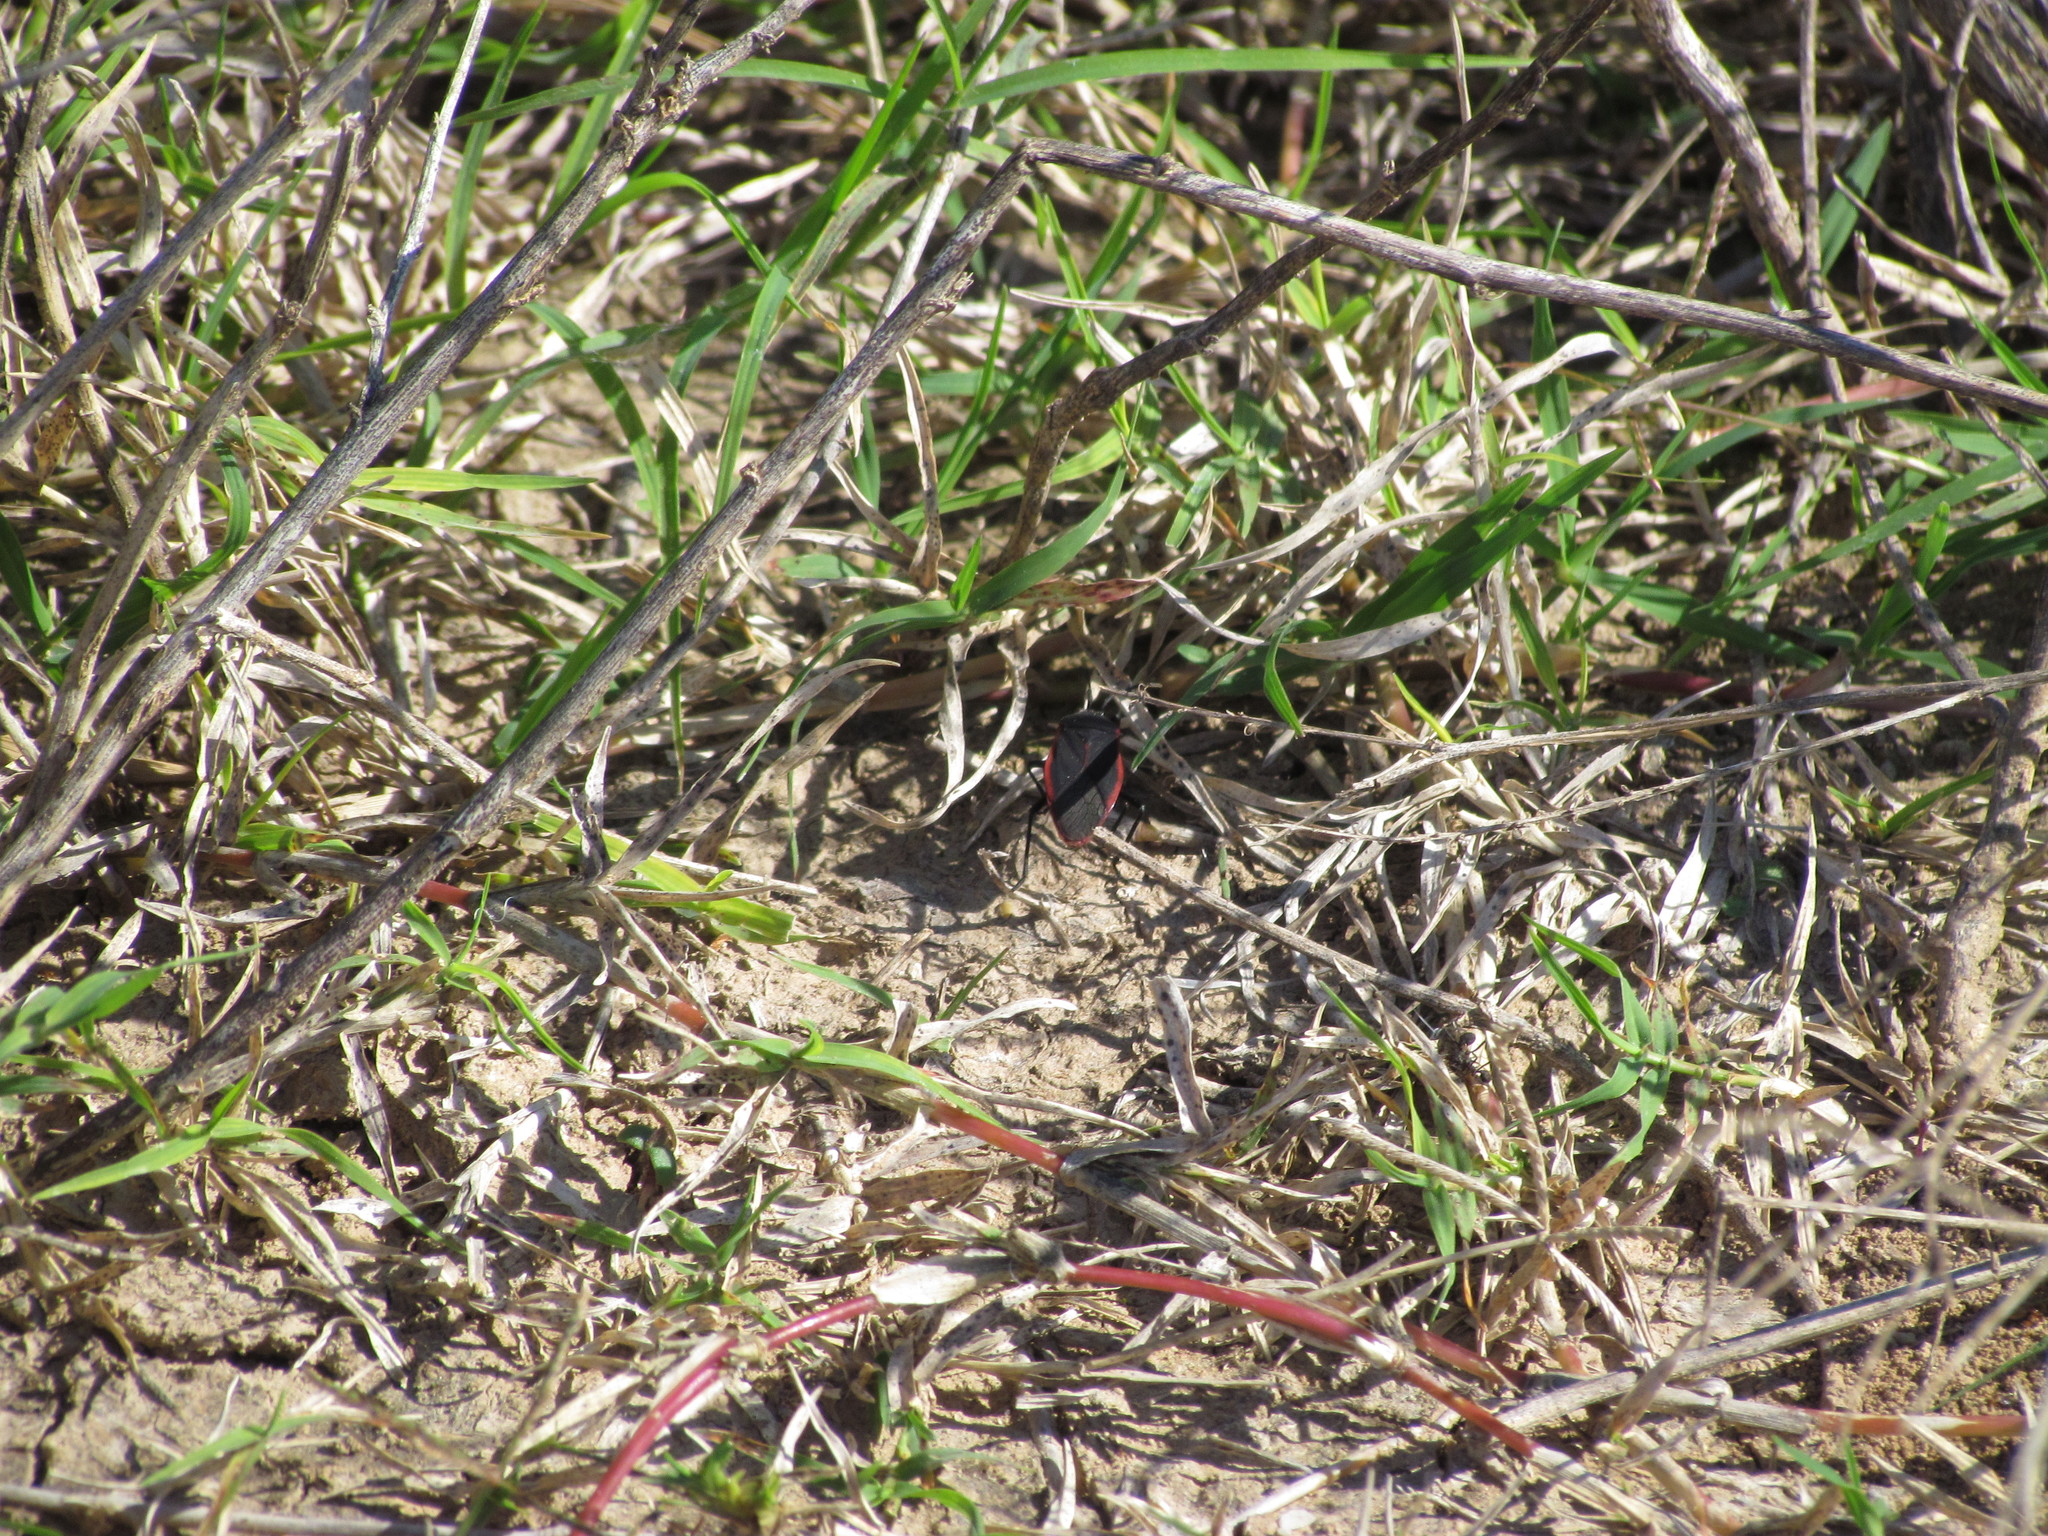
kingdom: Animalia
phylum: Arthropoda
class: Insecta
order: Hemiptera
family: Largidae
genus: Largus
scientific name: Largus rufipennis
